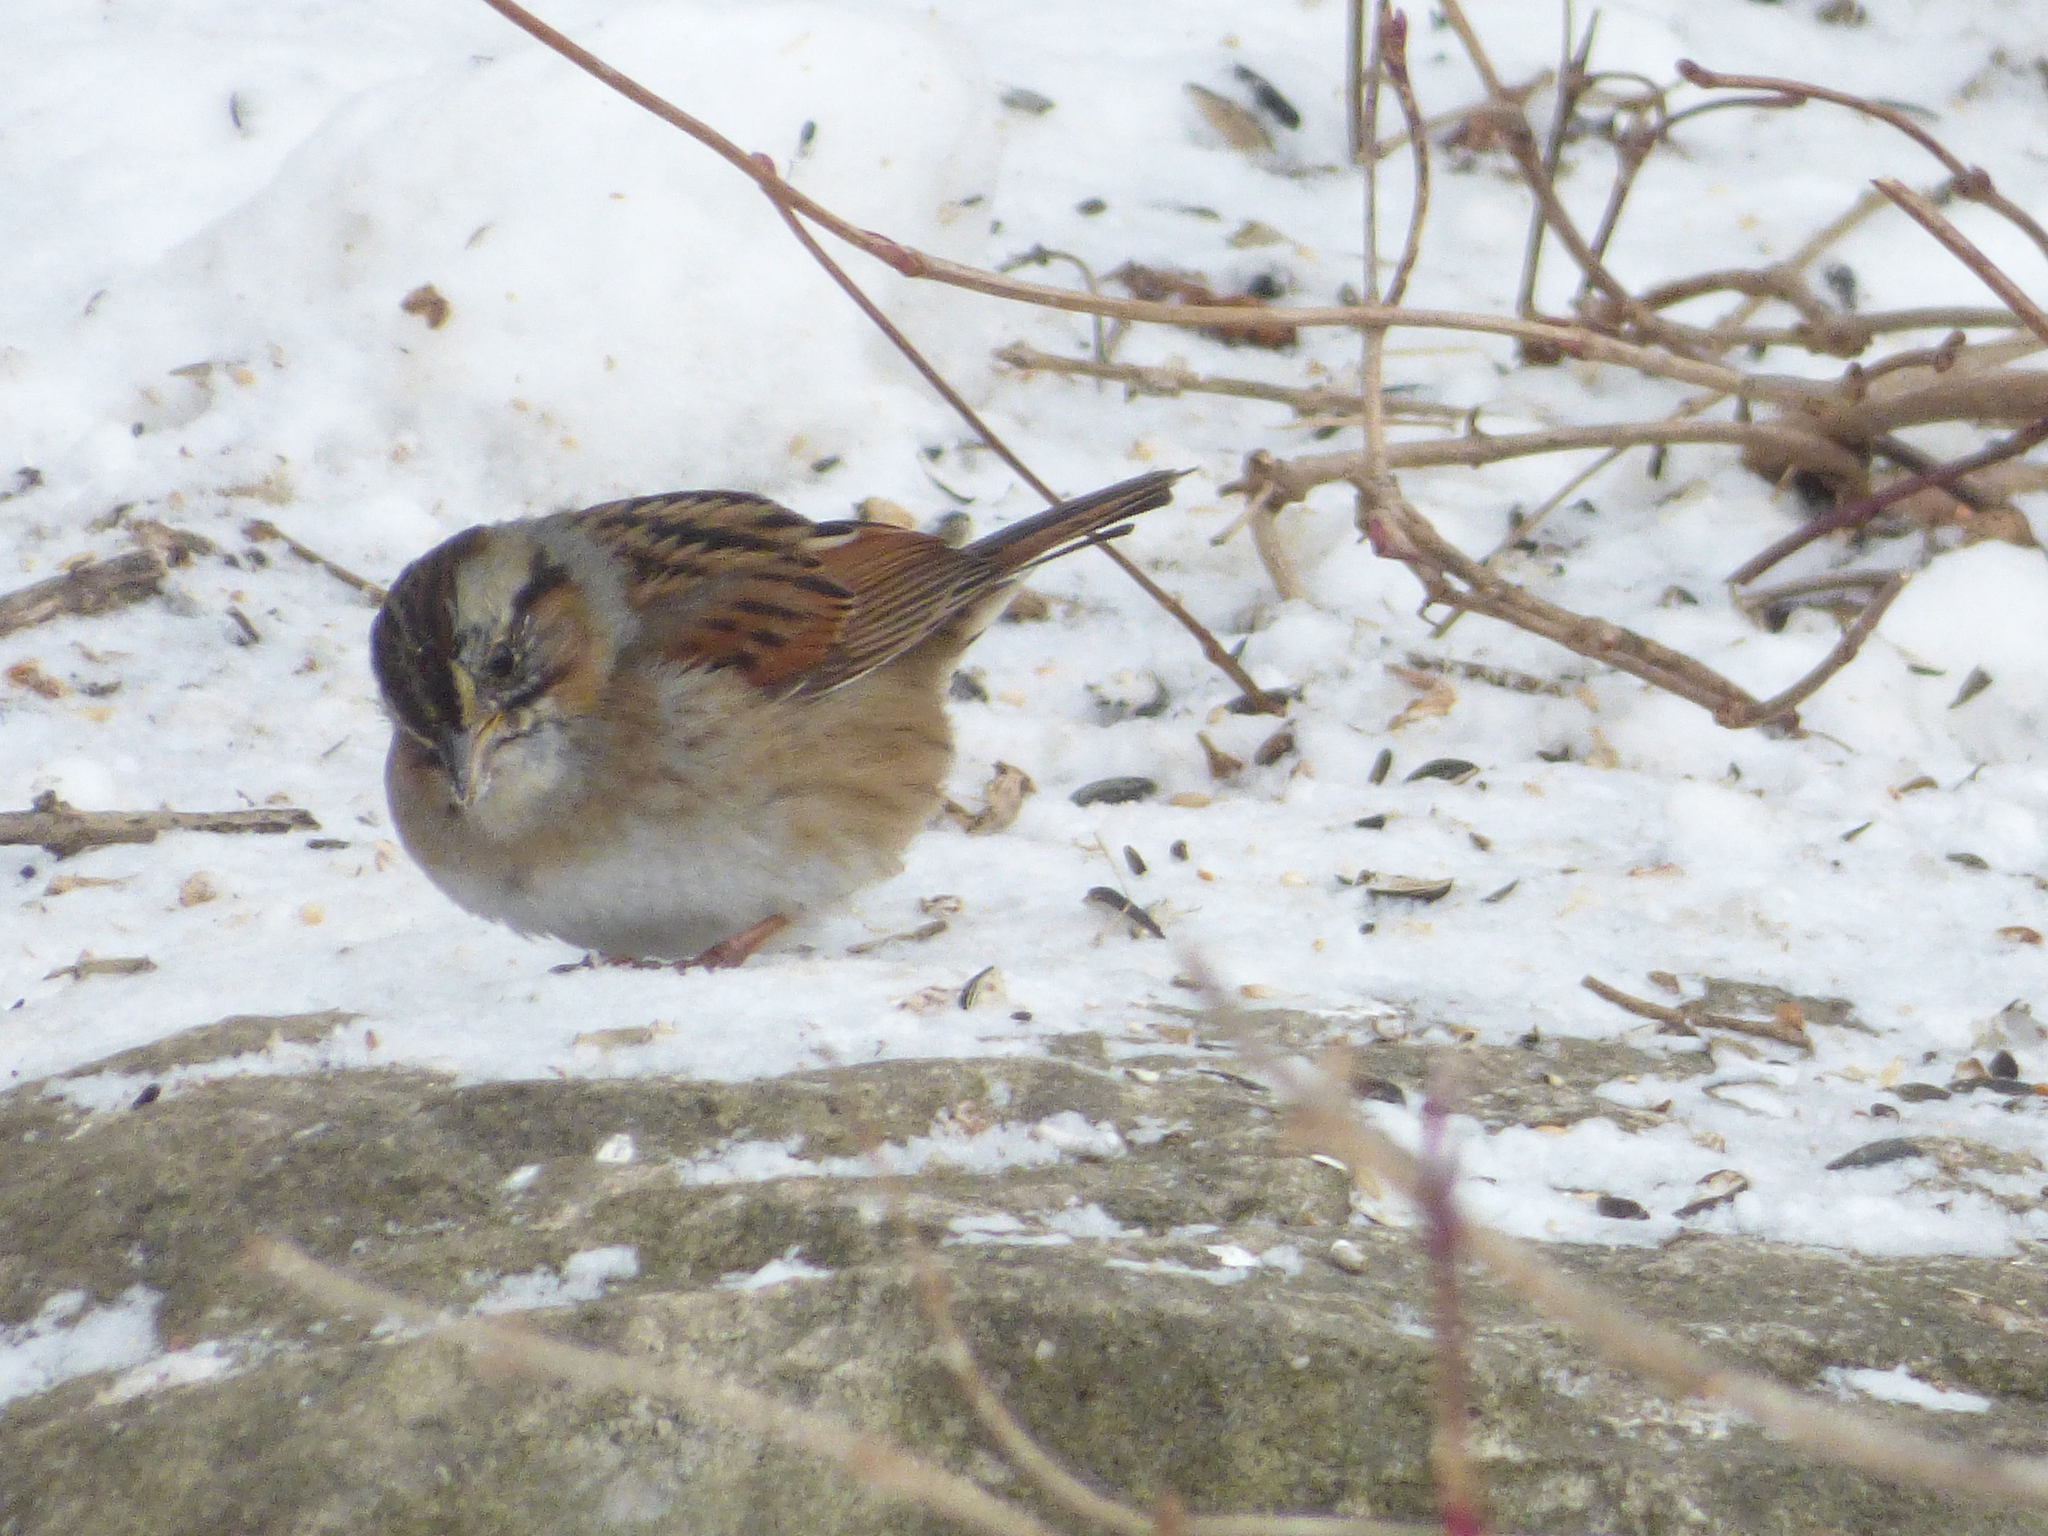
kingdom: Animalia
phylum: Chordata
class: Aves
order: Passeriformes
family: Passerellidae
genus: Melospiza
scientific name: Melospiza georgiana
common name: Swamp sparrow
